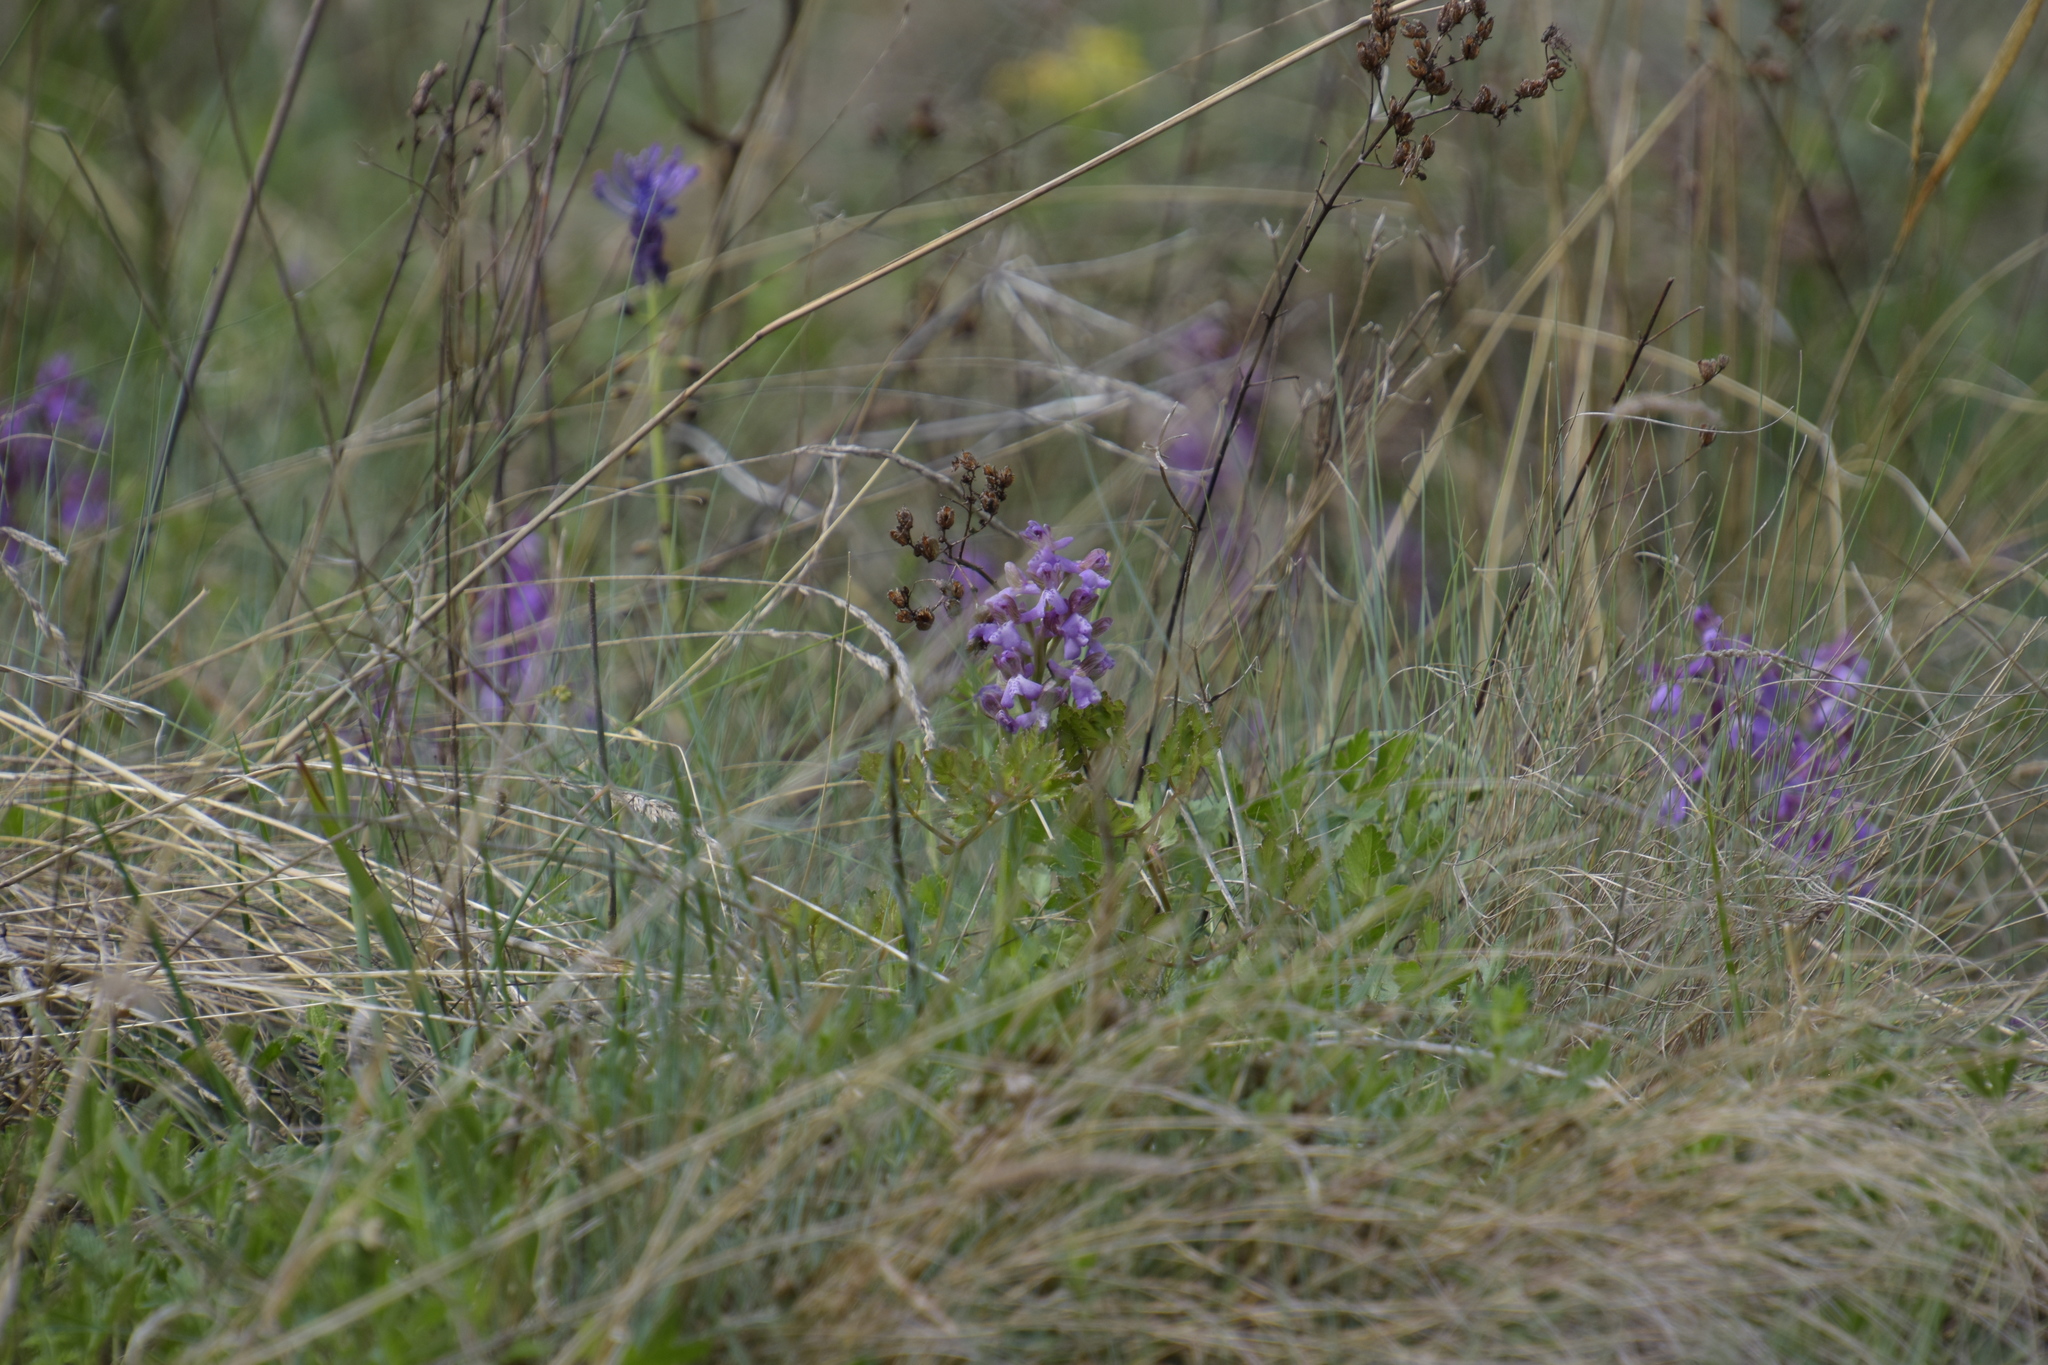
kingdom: Plantae
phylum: Tracheophyta
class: Liliopsida
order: Asparagales
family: Orchidaceae
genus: Anacamptis
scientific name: Anacamptis morio
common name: Green-winged orchid
